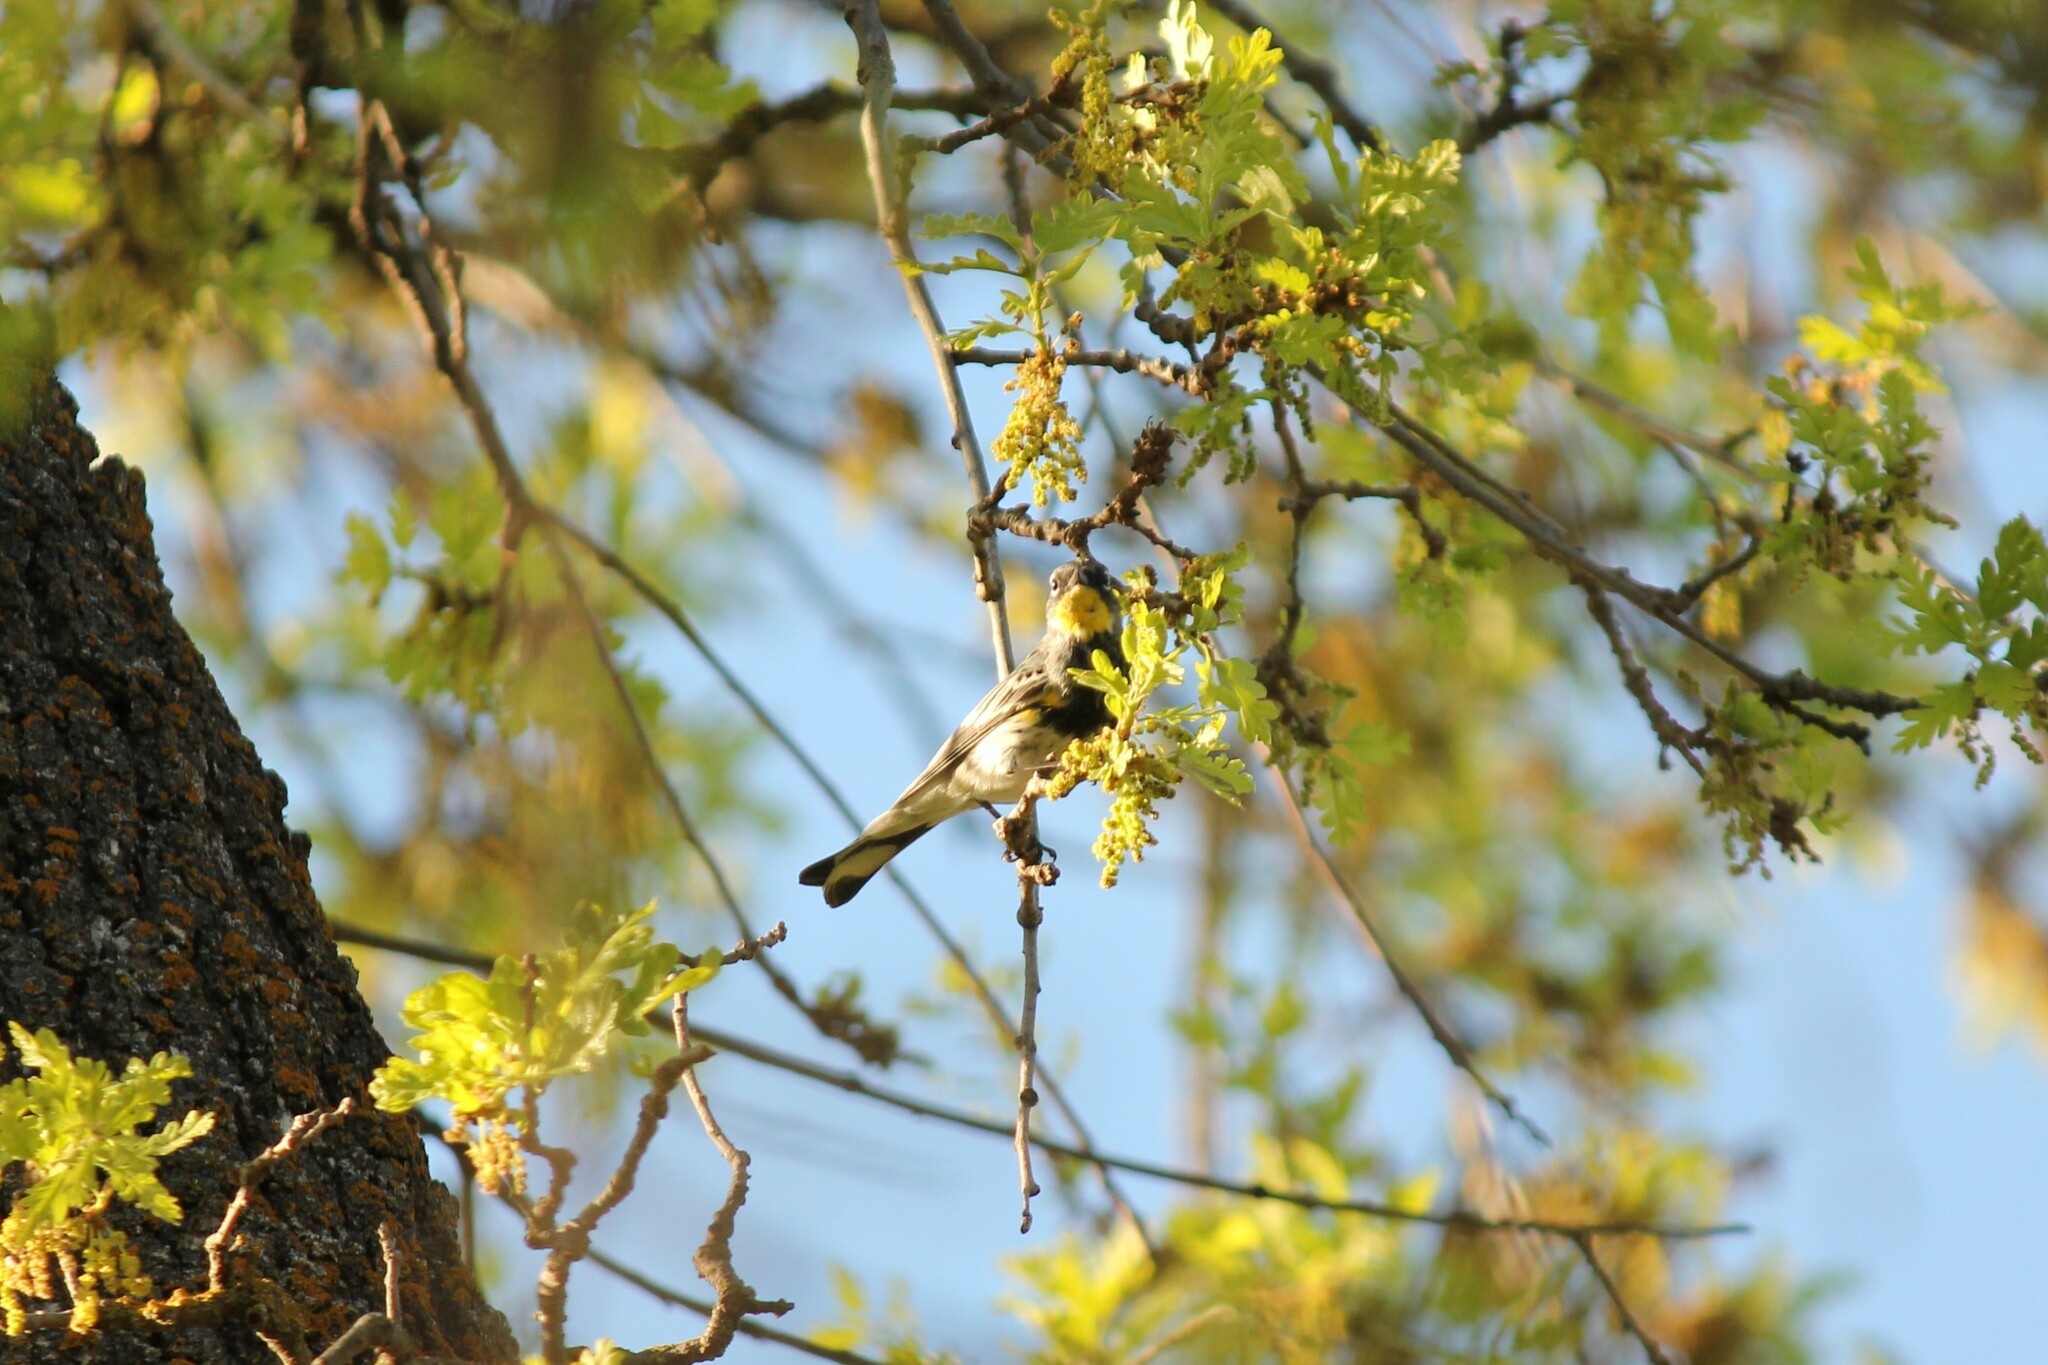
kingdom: Animalia
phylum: Chordata
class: Aves
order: Passeriformes
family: Parulidae
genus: Setophaga
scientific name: Setophaga coronata
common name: Myrtle warbler
